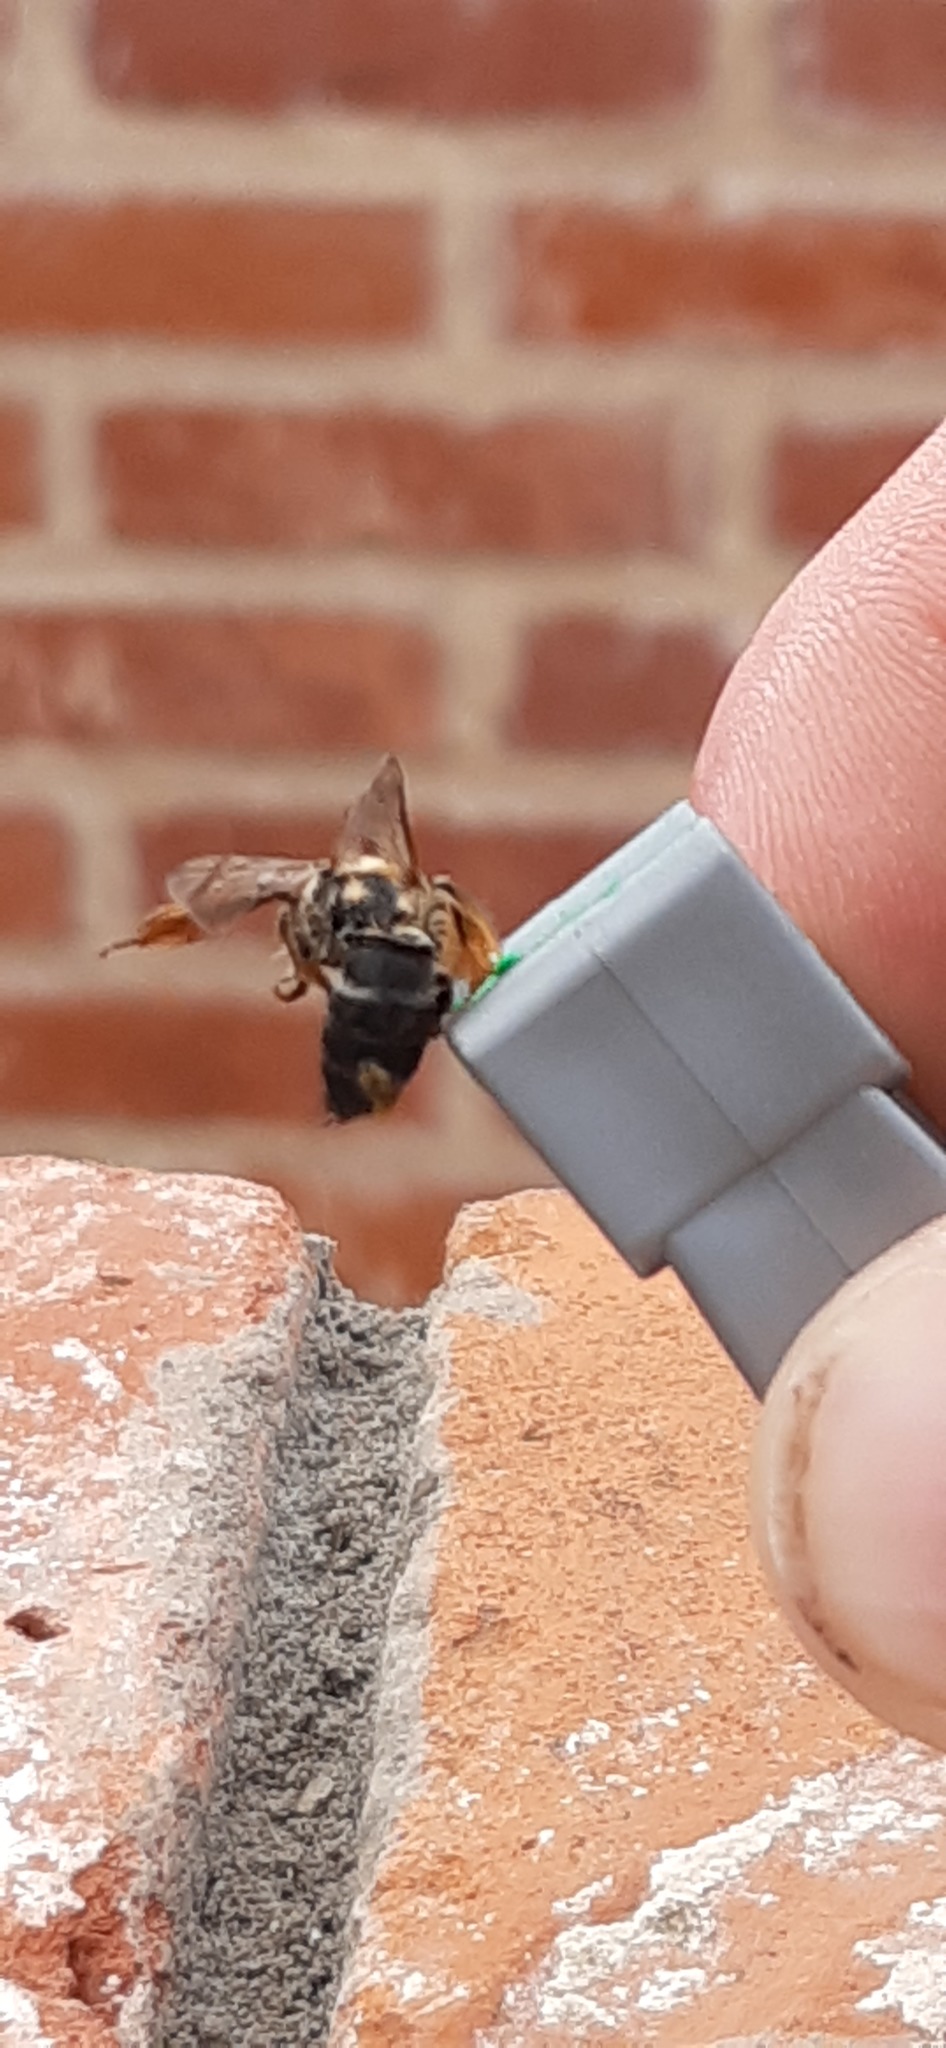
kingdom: Animalia
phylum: Arthropoda
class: Insecta
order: Hymenoptera
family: Melittidae
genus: Dasypoda
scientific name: Dasypoda hirtipes
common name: Pantaloon bee
